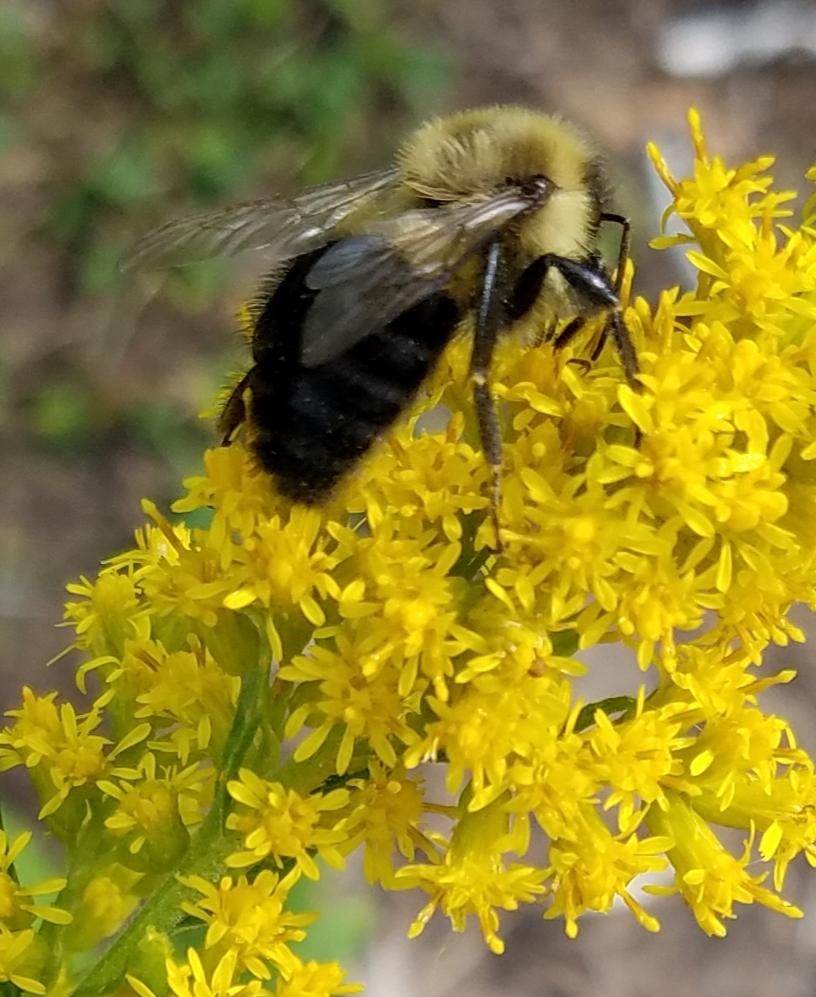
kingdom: Animalia
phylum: Arthropoda
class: Insecta
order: Hymenoptera
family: Apidae
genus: Bombus
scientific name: Bombus impatiens
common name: Common eastern bumble bee
